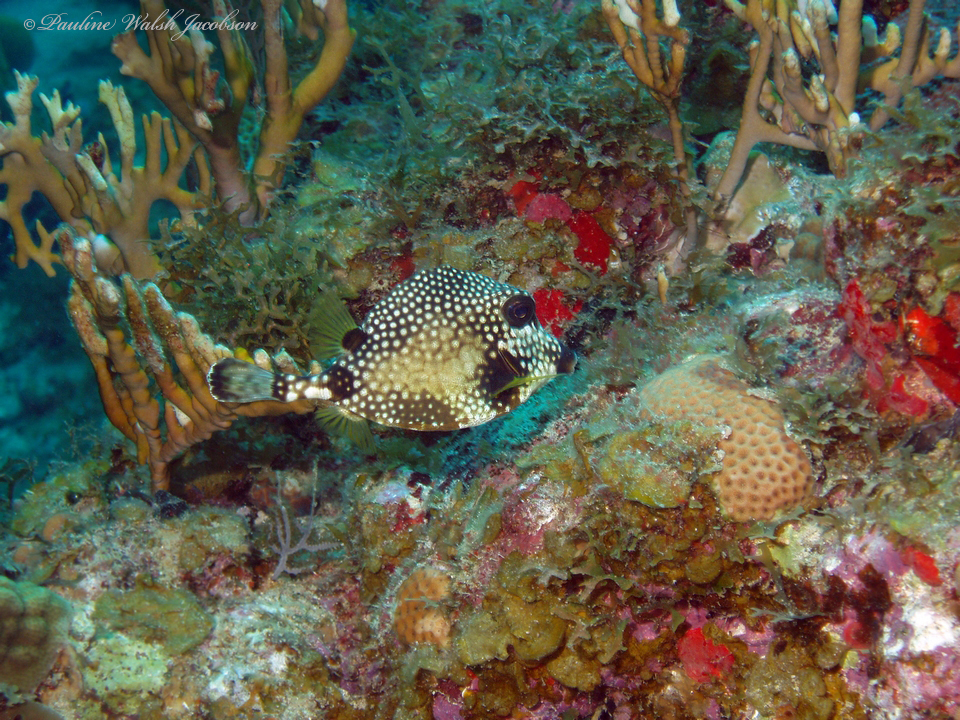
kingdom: Animalia
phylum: Chordata
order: Tetraodontiformes
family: Ostraciidae
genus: Lactophrys
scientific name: Lactophrys triqueter
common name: Smooth trunkfish
